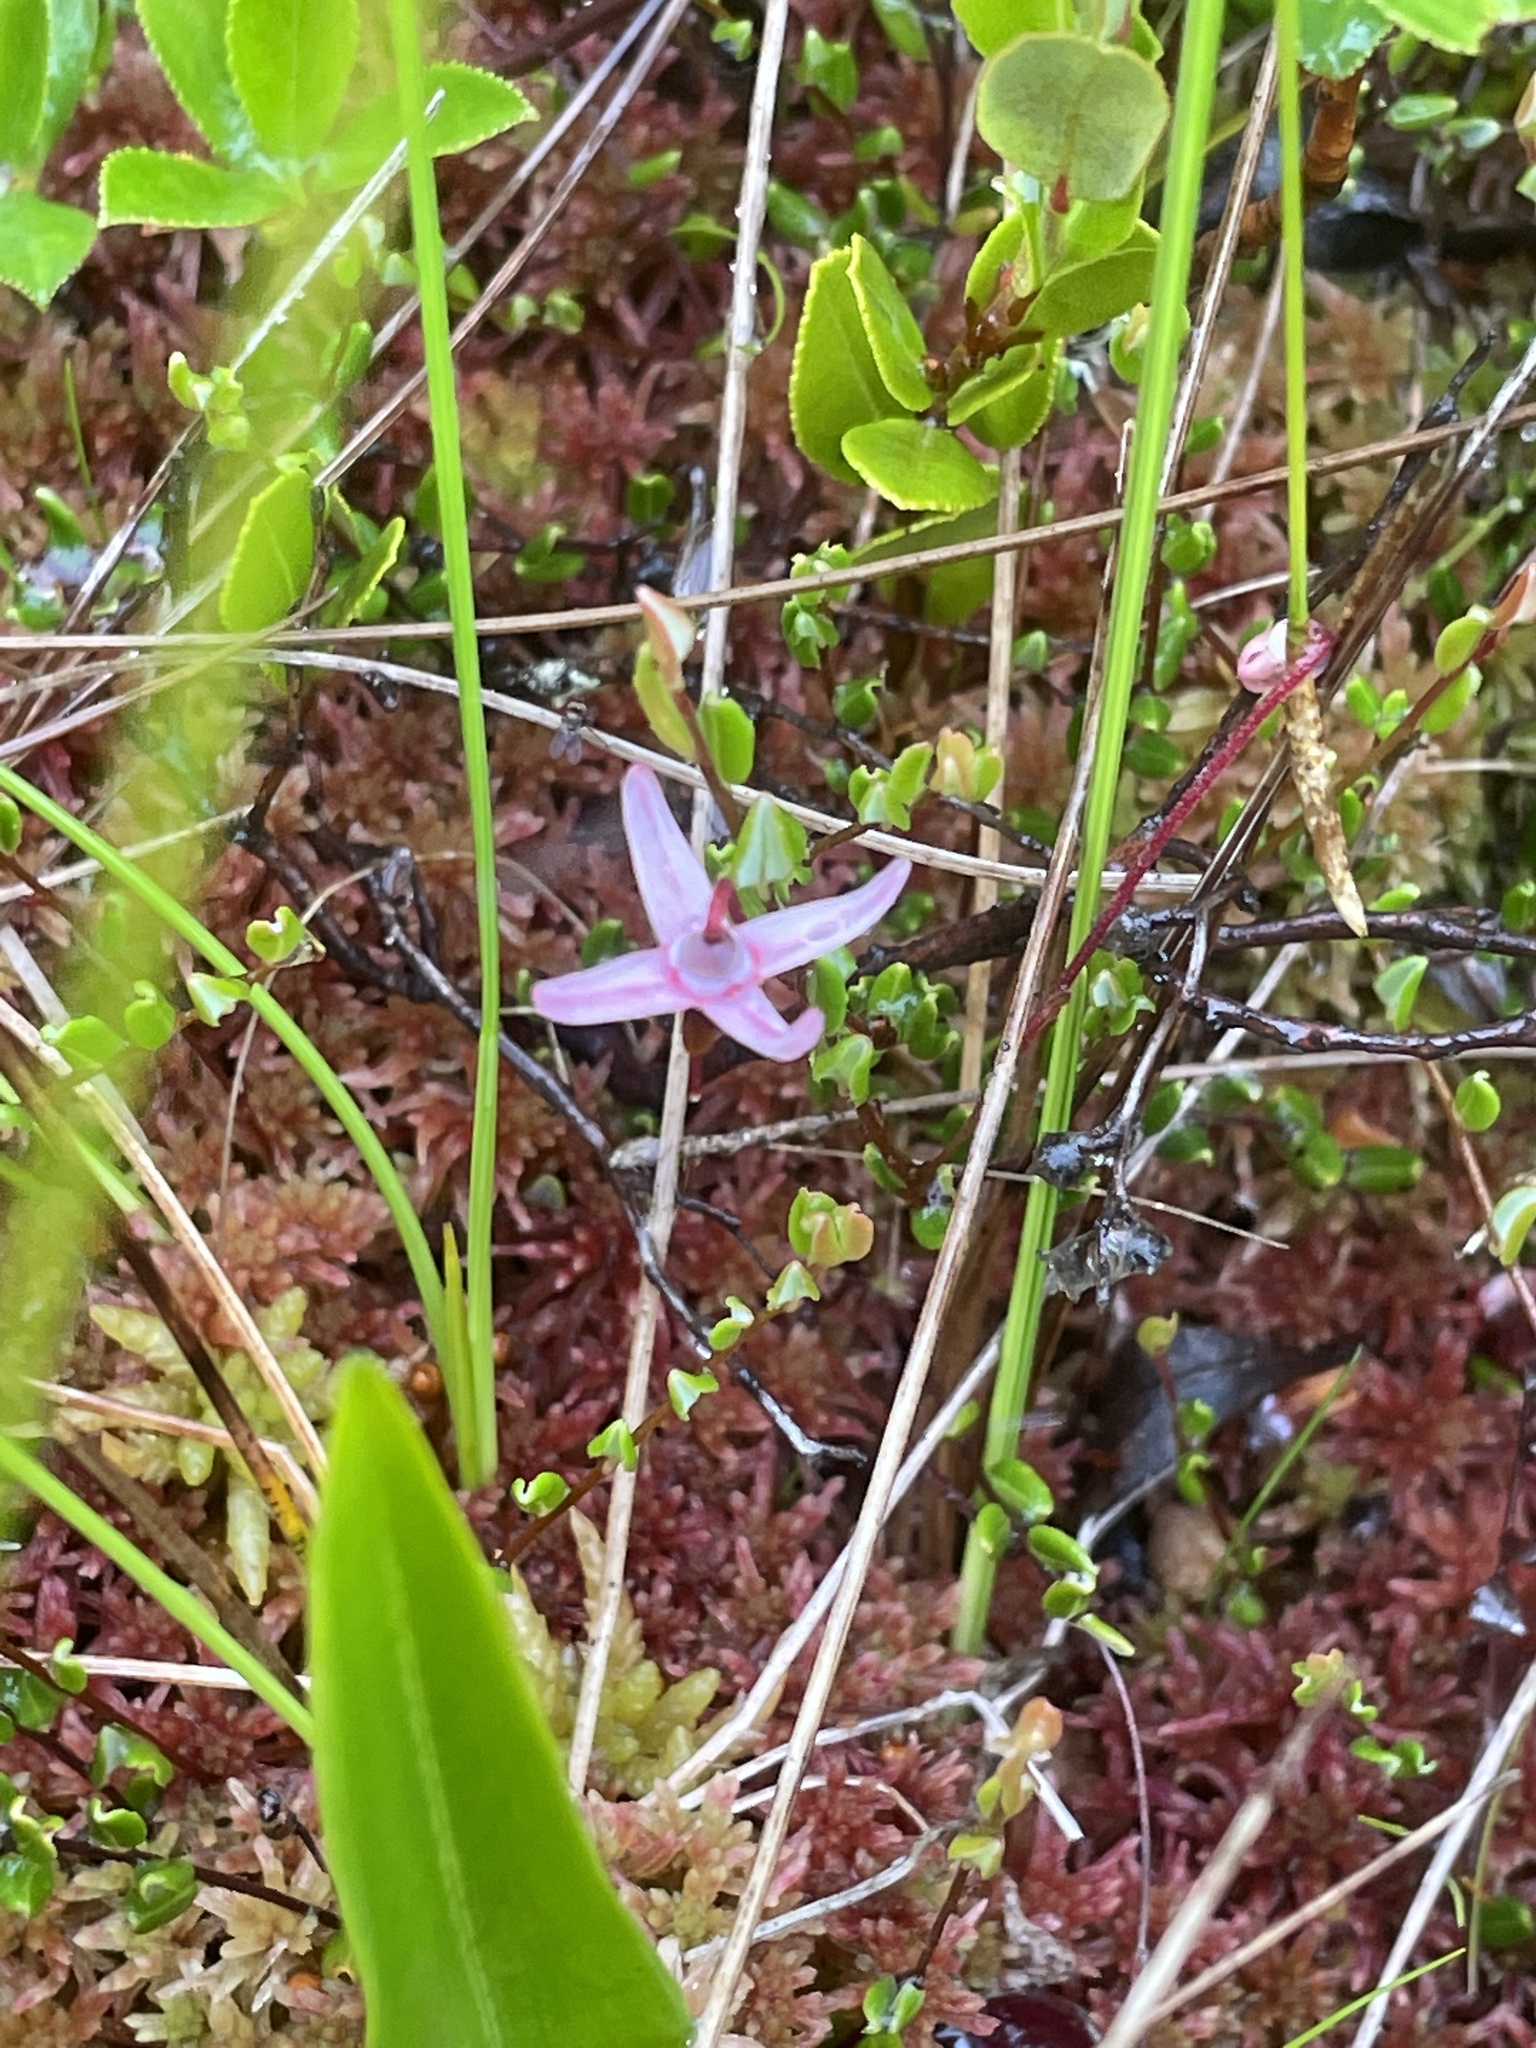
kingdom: Plantae
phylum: Tracheophyta
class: Magnoliopsida
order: Ericales
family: Ericaceae
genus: Vaccinium
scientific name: Vaccinium oxycoccos
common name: Cranberry
